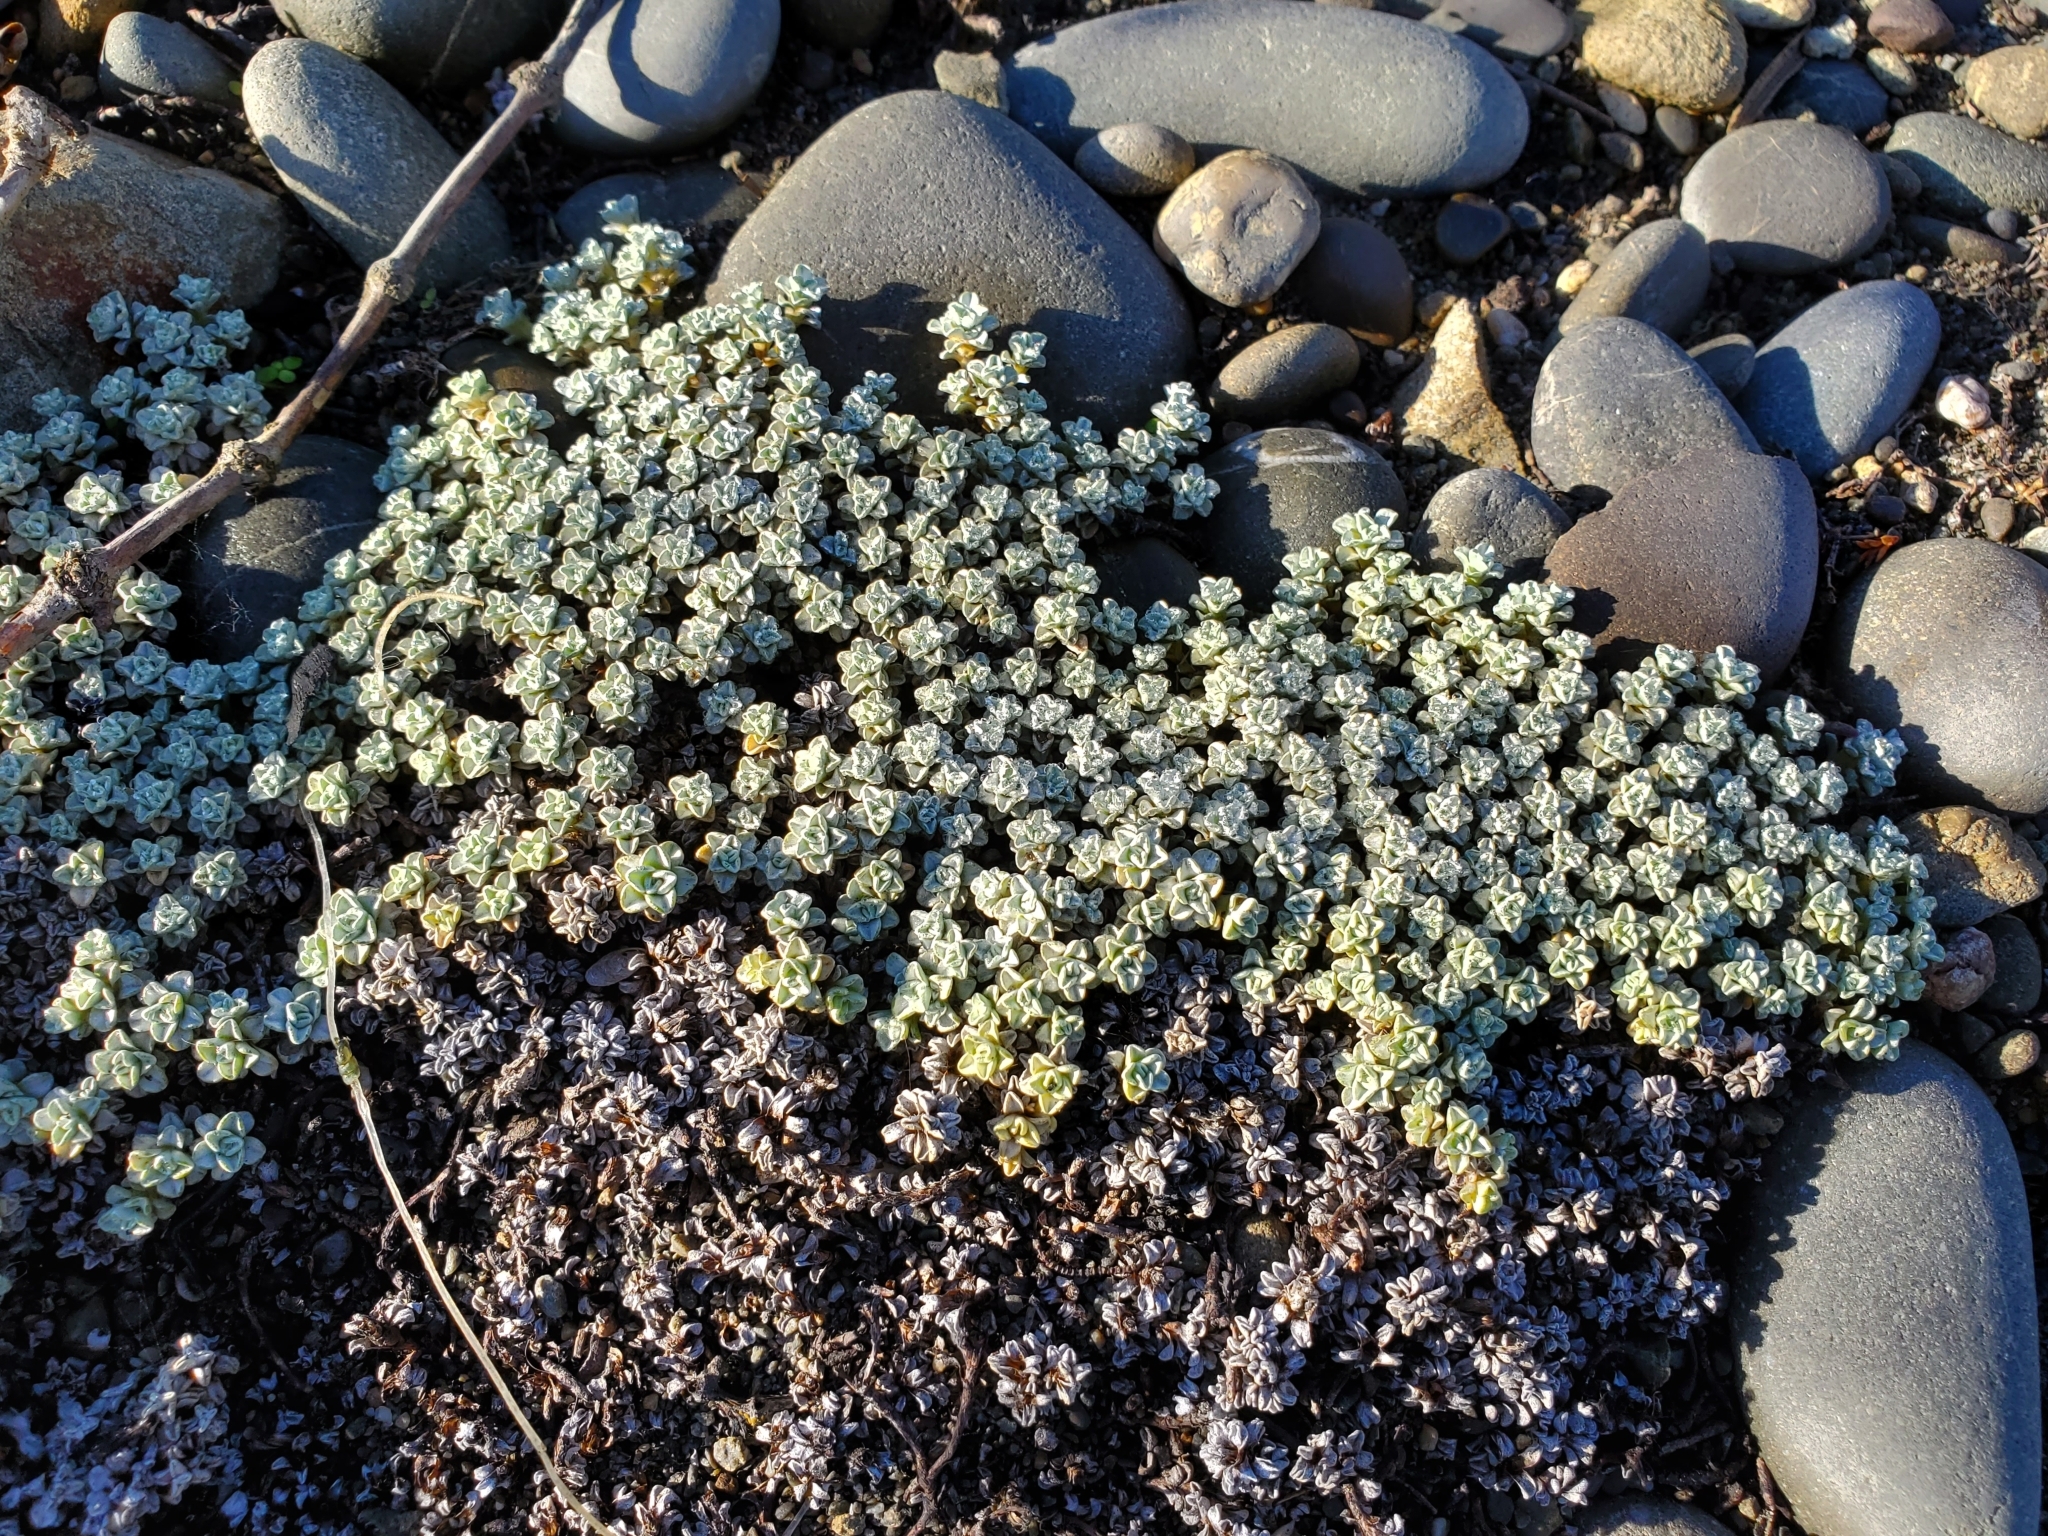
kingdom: Plantae
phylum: Tracheophyta
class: Magnoliopsida
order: Asterales
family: Asteraceae
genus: Raoulia
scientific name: Raoulia hookeri
